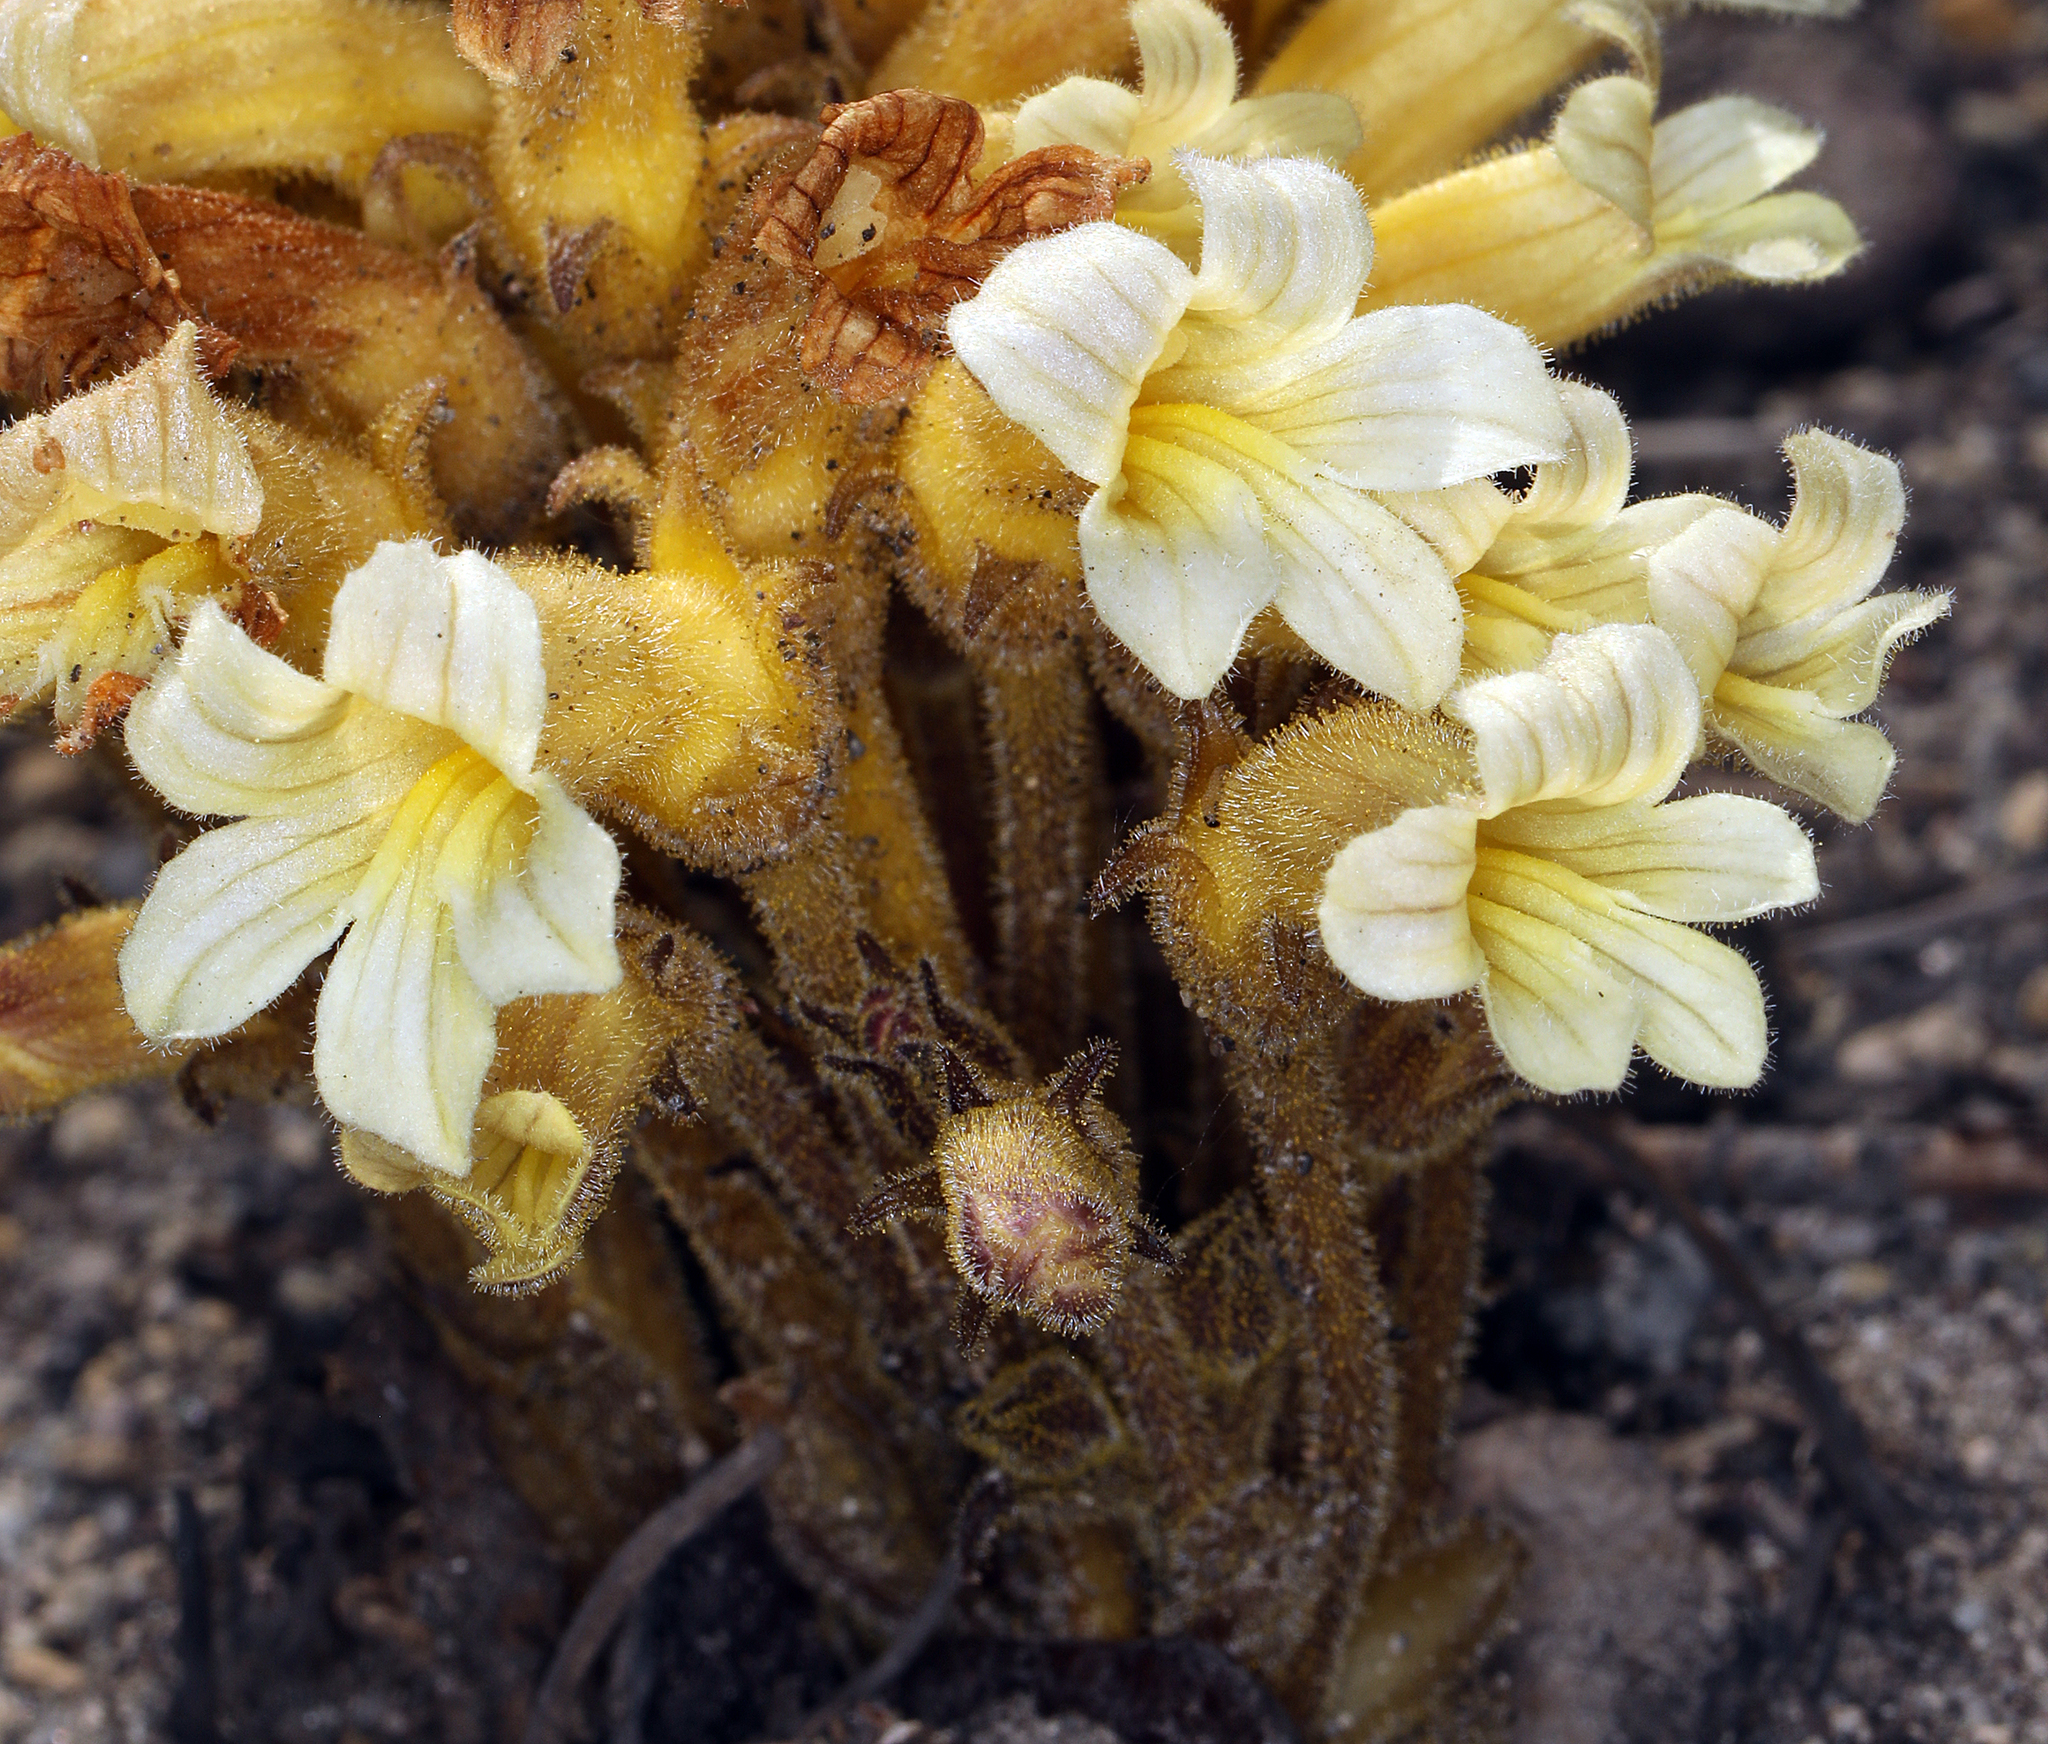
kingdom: Plantae
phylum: Tracheophyta
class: Magnoliopsida
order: Lamiales
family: Orobanchaceae
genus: Aphyllon
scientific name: Aphyllon franciscanum
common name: San francisco broomrape
